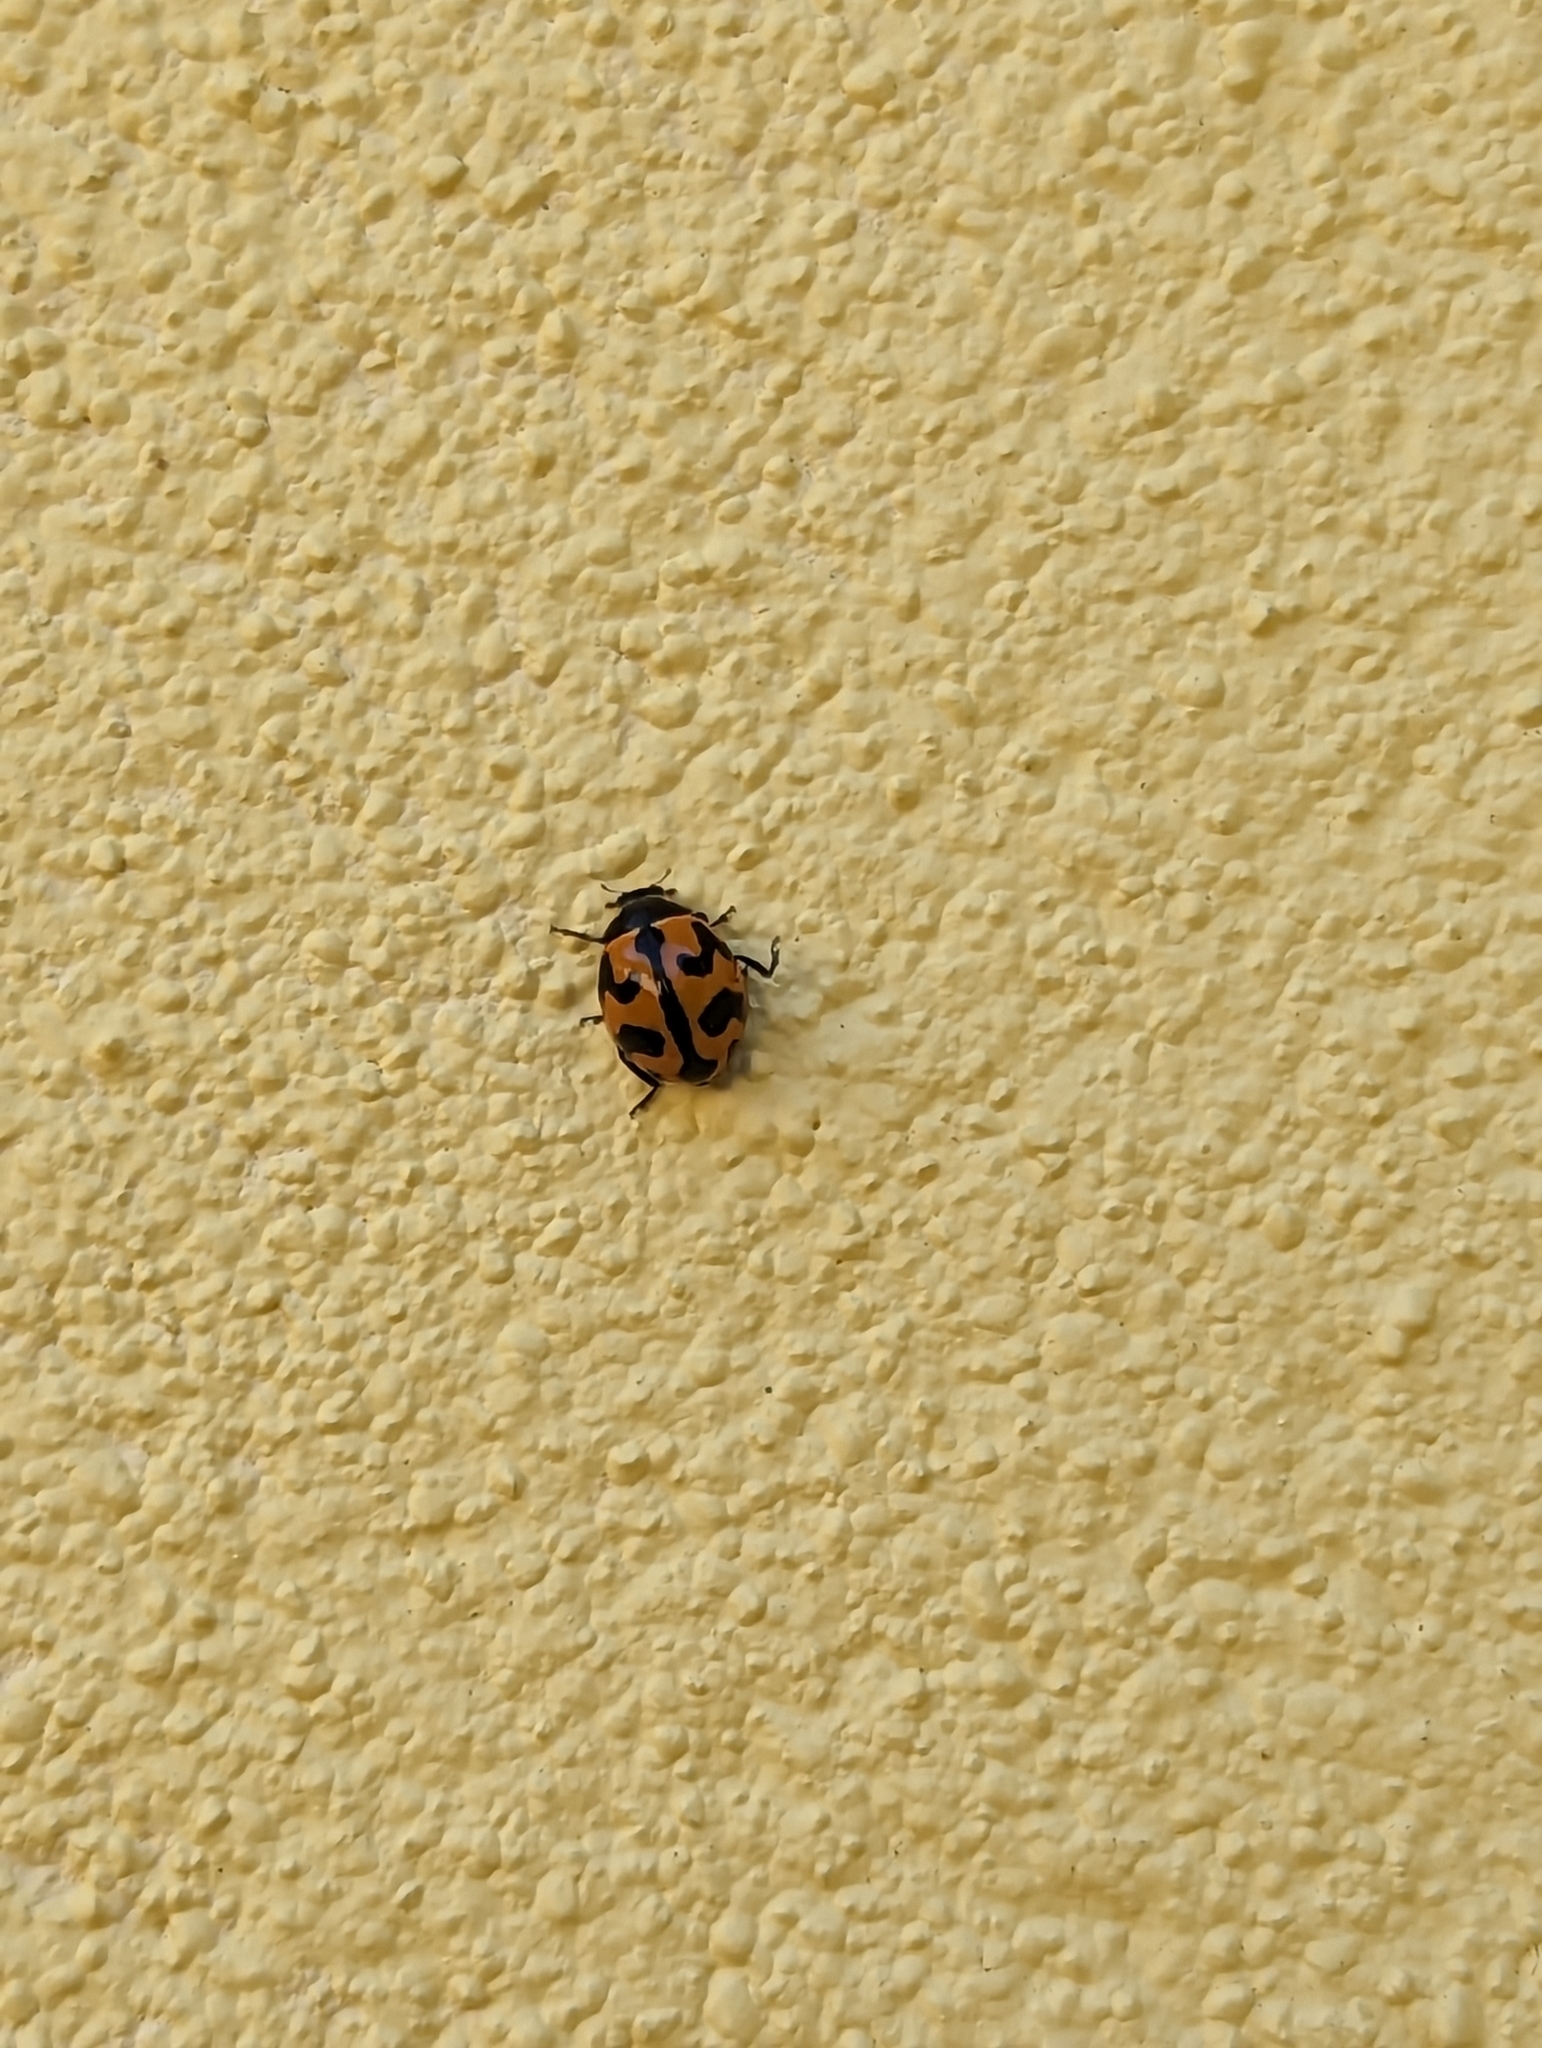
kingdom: Animalia
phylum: Arthropoda
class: Insecta
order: Coleoptera
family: Coccinellidae
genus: Coccinella
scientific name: Coccinella transversalis
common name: Transverse lady beetle
